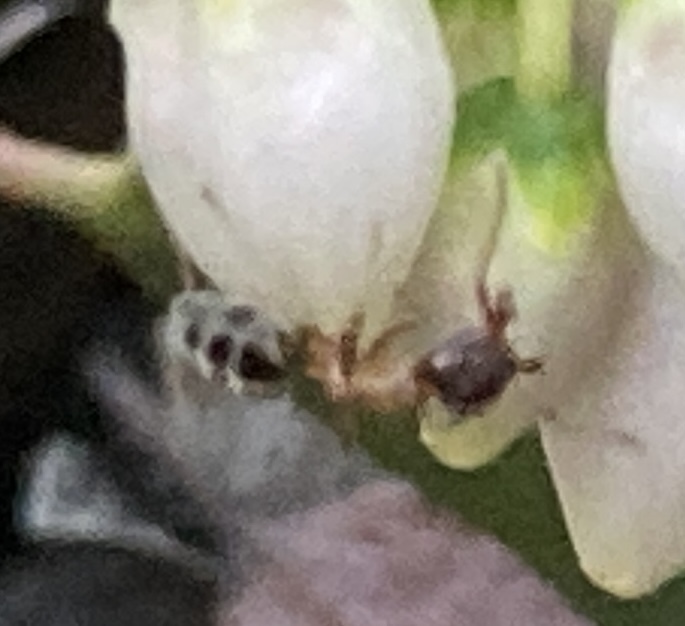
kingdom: Animalia
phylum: Arthropoda
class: Insecta
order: Hymenoptera
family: Formicidae
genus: Liometopum
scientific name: Liometopum occidentale
